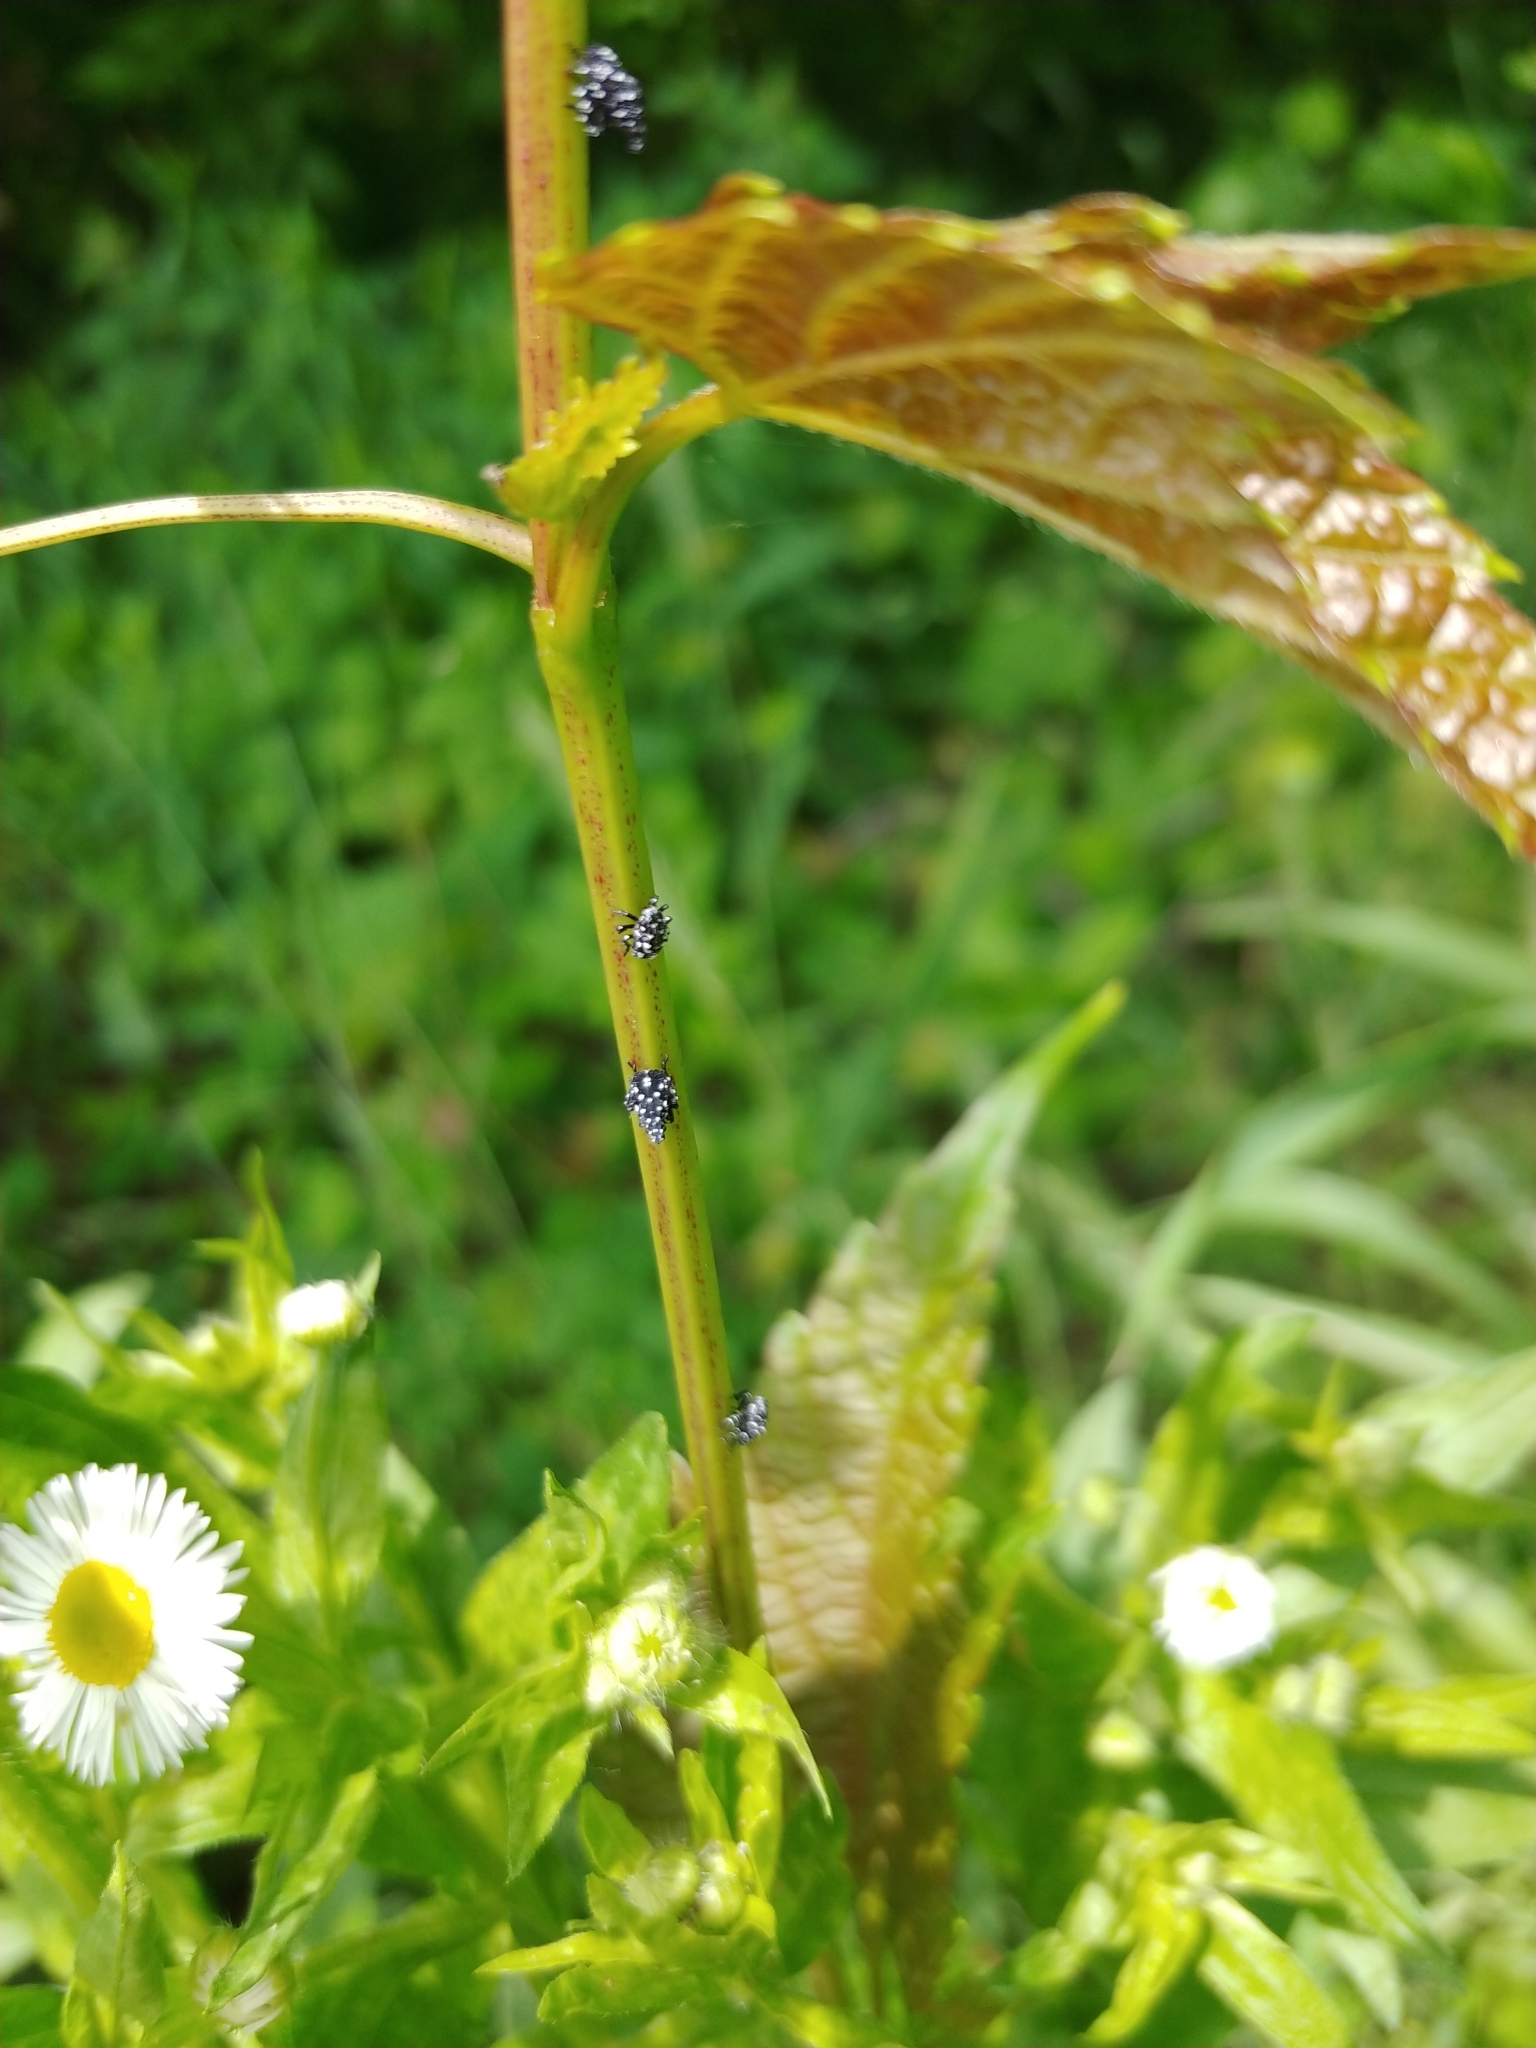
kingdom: Animalia
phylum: Arthropoda
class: Insecta
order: Hemiptera
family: Fulgoridae
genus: Lycorma
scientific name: Lycorma delicatula
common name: Spotted lanternfly
